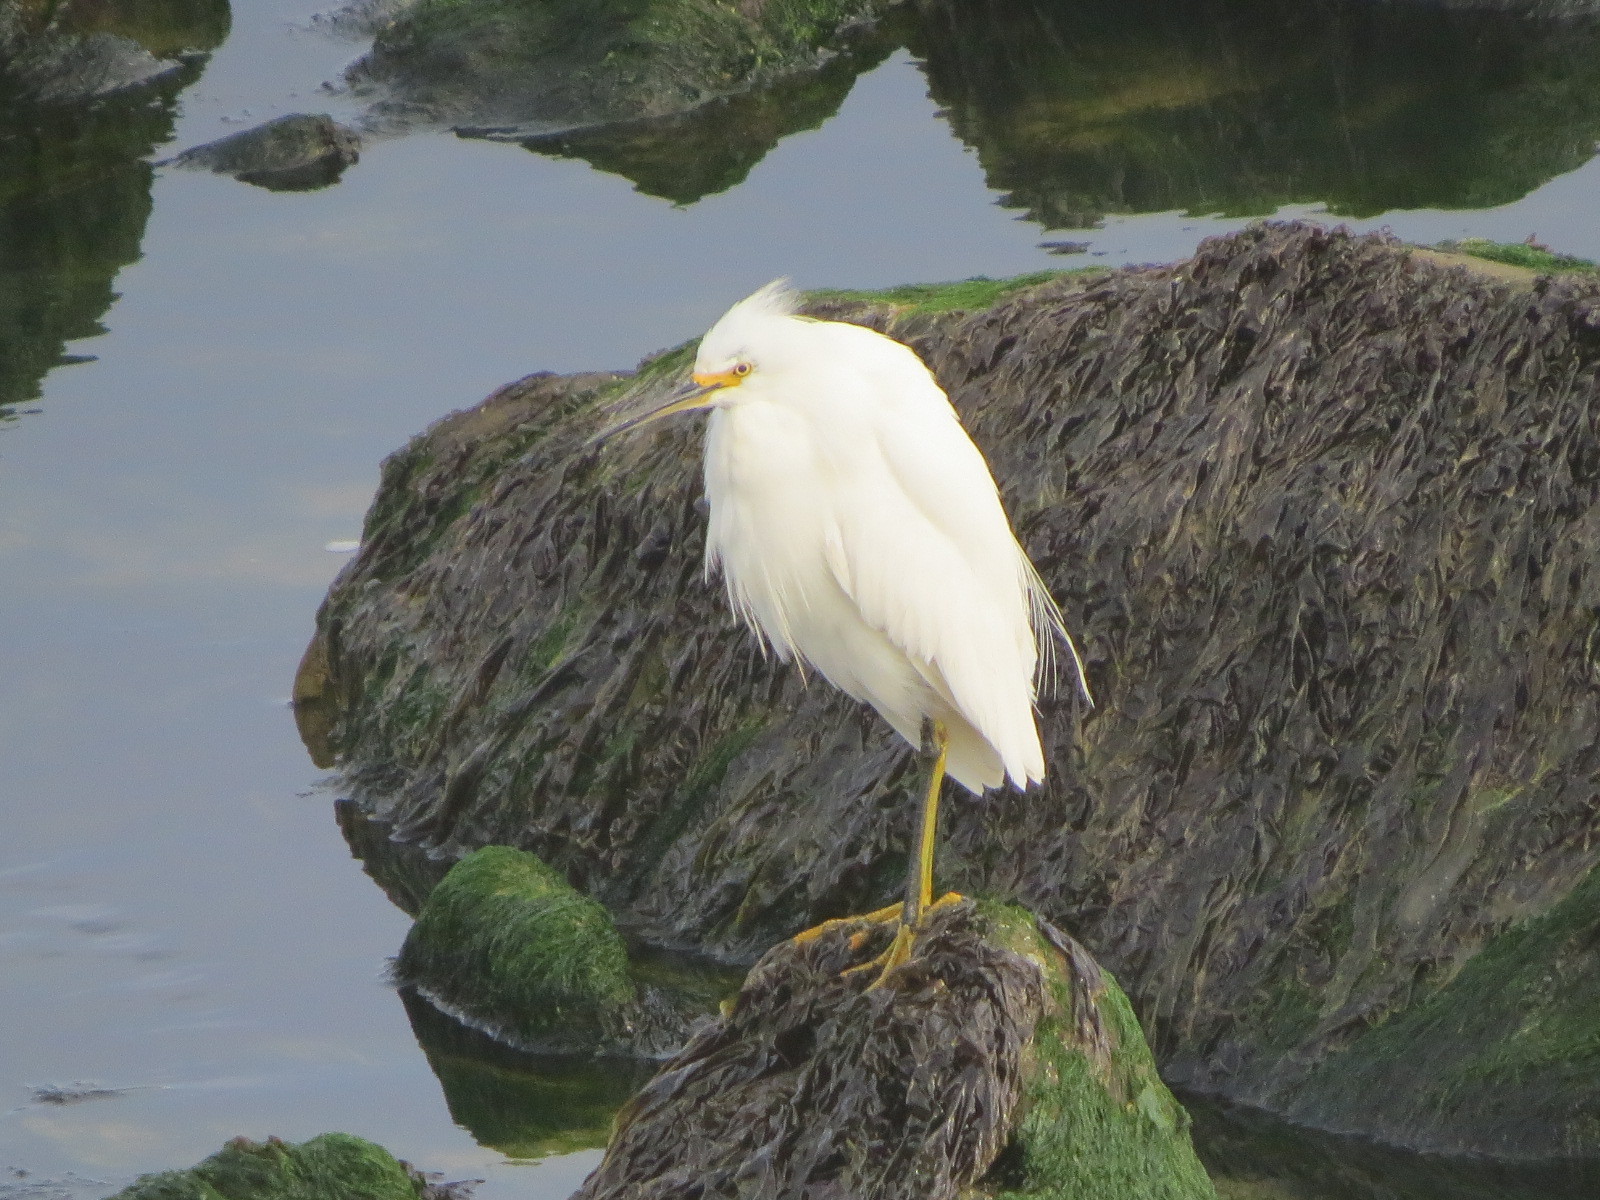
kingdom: Animalia
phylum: Chordata
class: Aves
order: Pelecaniformes
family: Ardeidae
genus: Egretta
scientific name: Egretta thula
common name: Snowy egret
